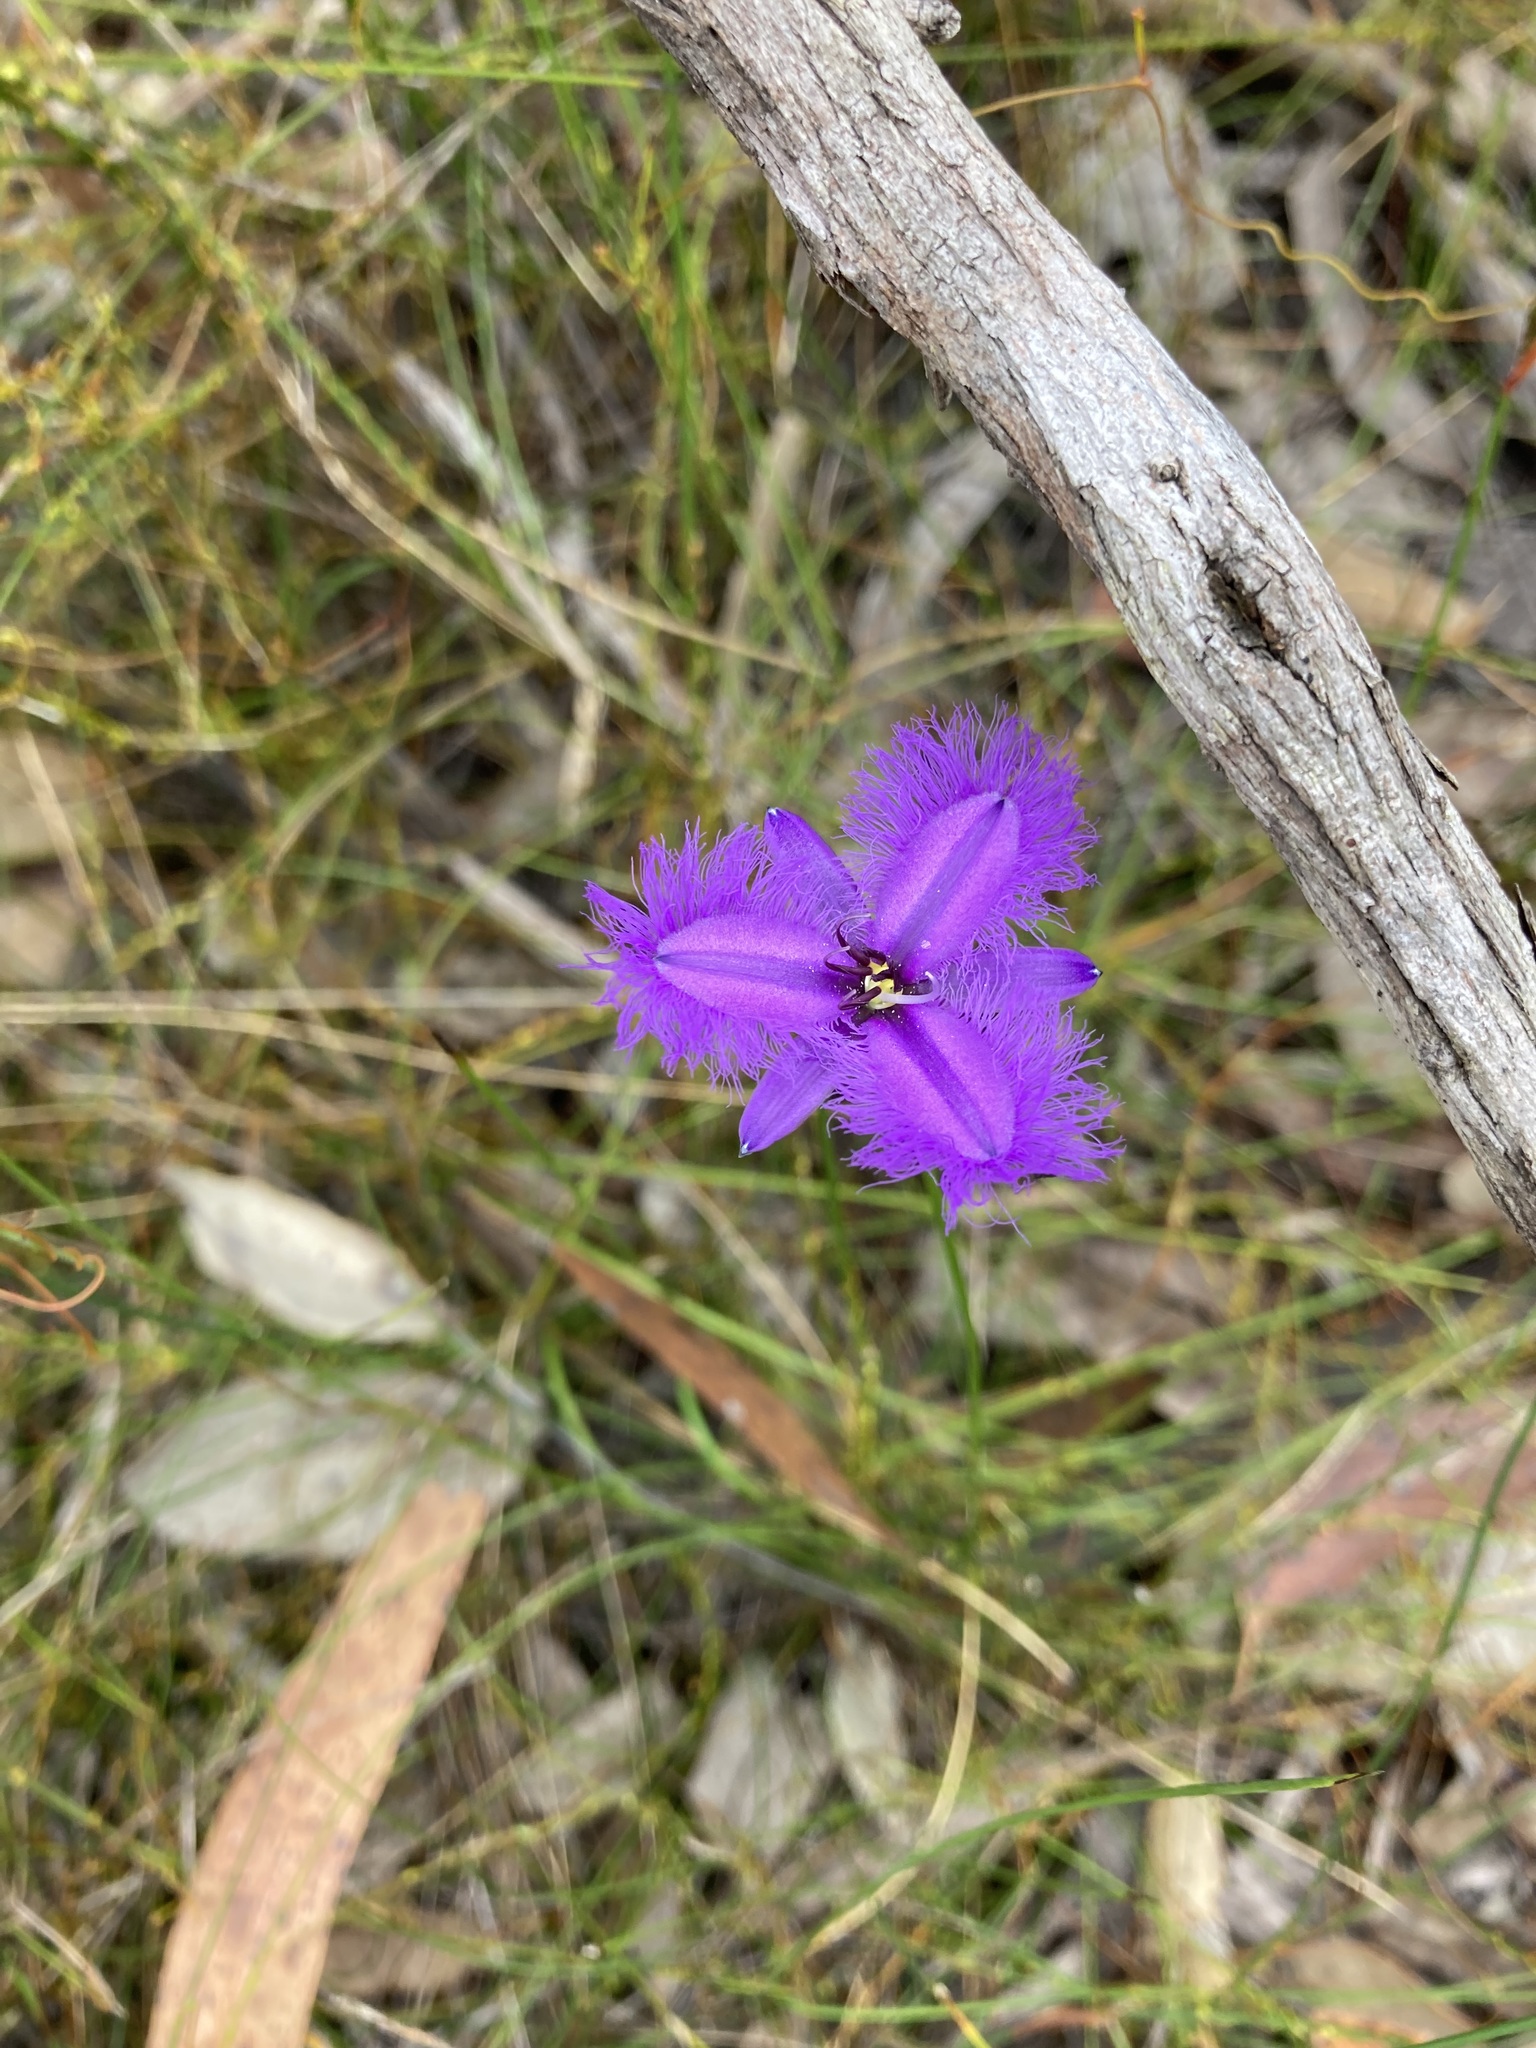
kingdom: Plantae
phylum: Tracheophyta
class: Liliopsida
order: Asparagales
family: Asparagaceae
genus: Thysanotus
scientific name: Thysanotus tuberosus
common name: Common fringed-lily
